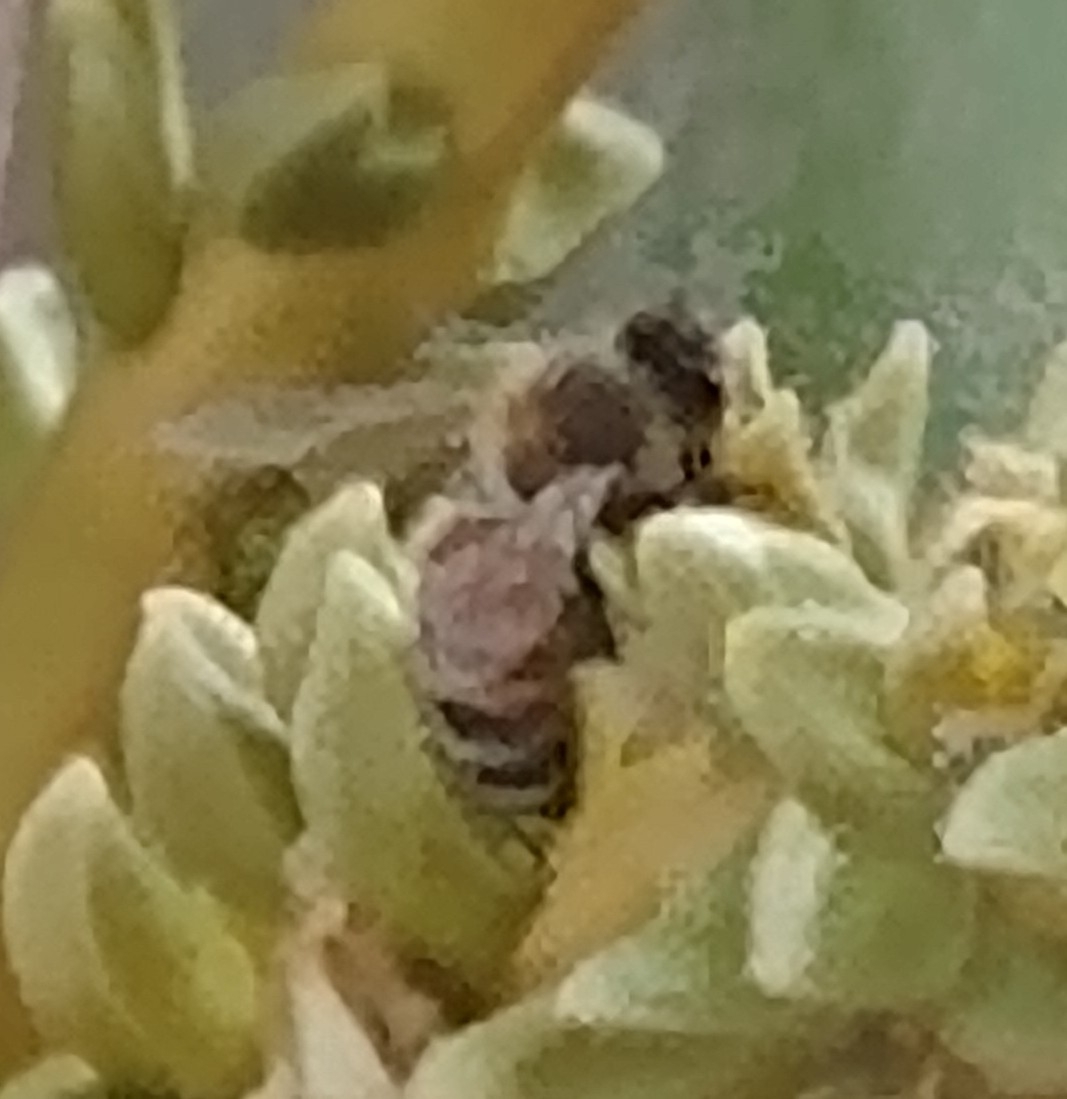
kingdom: Animalia
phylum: Arthropoda
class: Insecta
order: Hymenoptera
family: Apidae
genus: Apis
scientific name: Apis mellifera
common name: Honey bee
